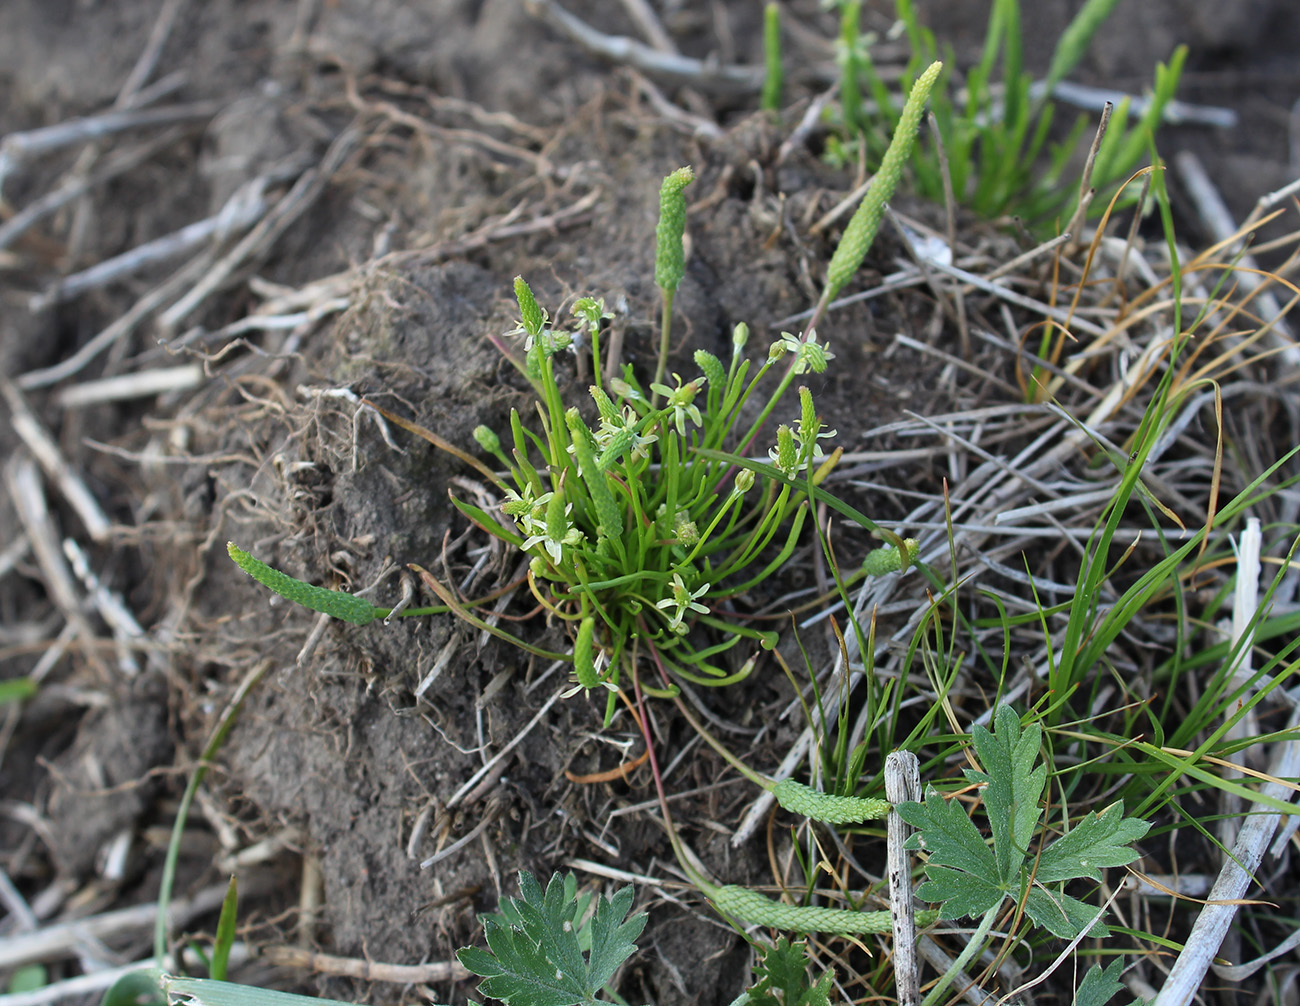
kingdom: Plantae
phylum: Tracheophyta
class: Magnoliopsida
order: Ranunculales
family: Ranunculaceae
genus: Myosurus
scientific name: Myosurus minimus
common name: Mousetail
